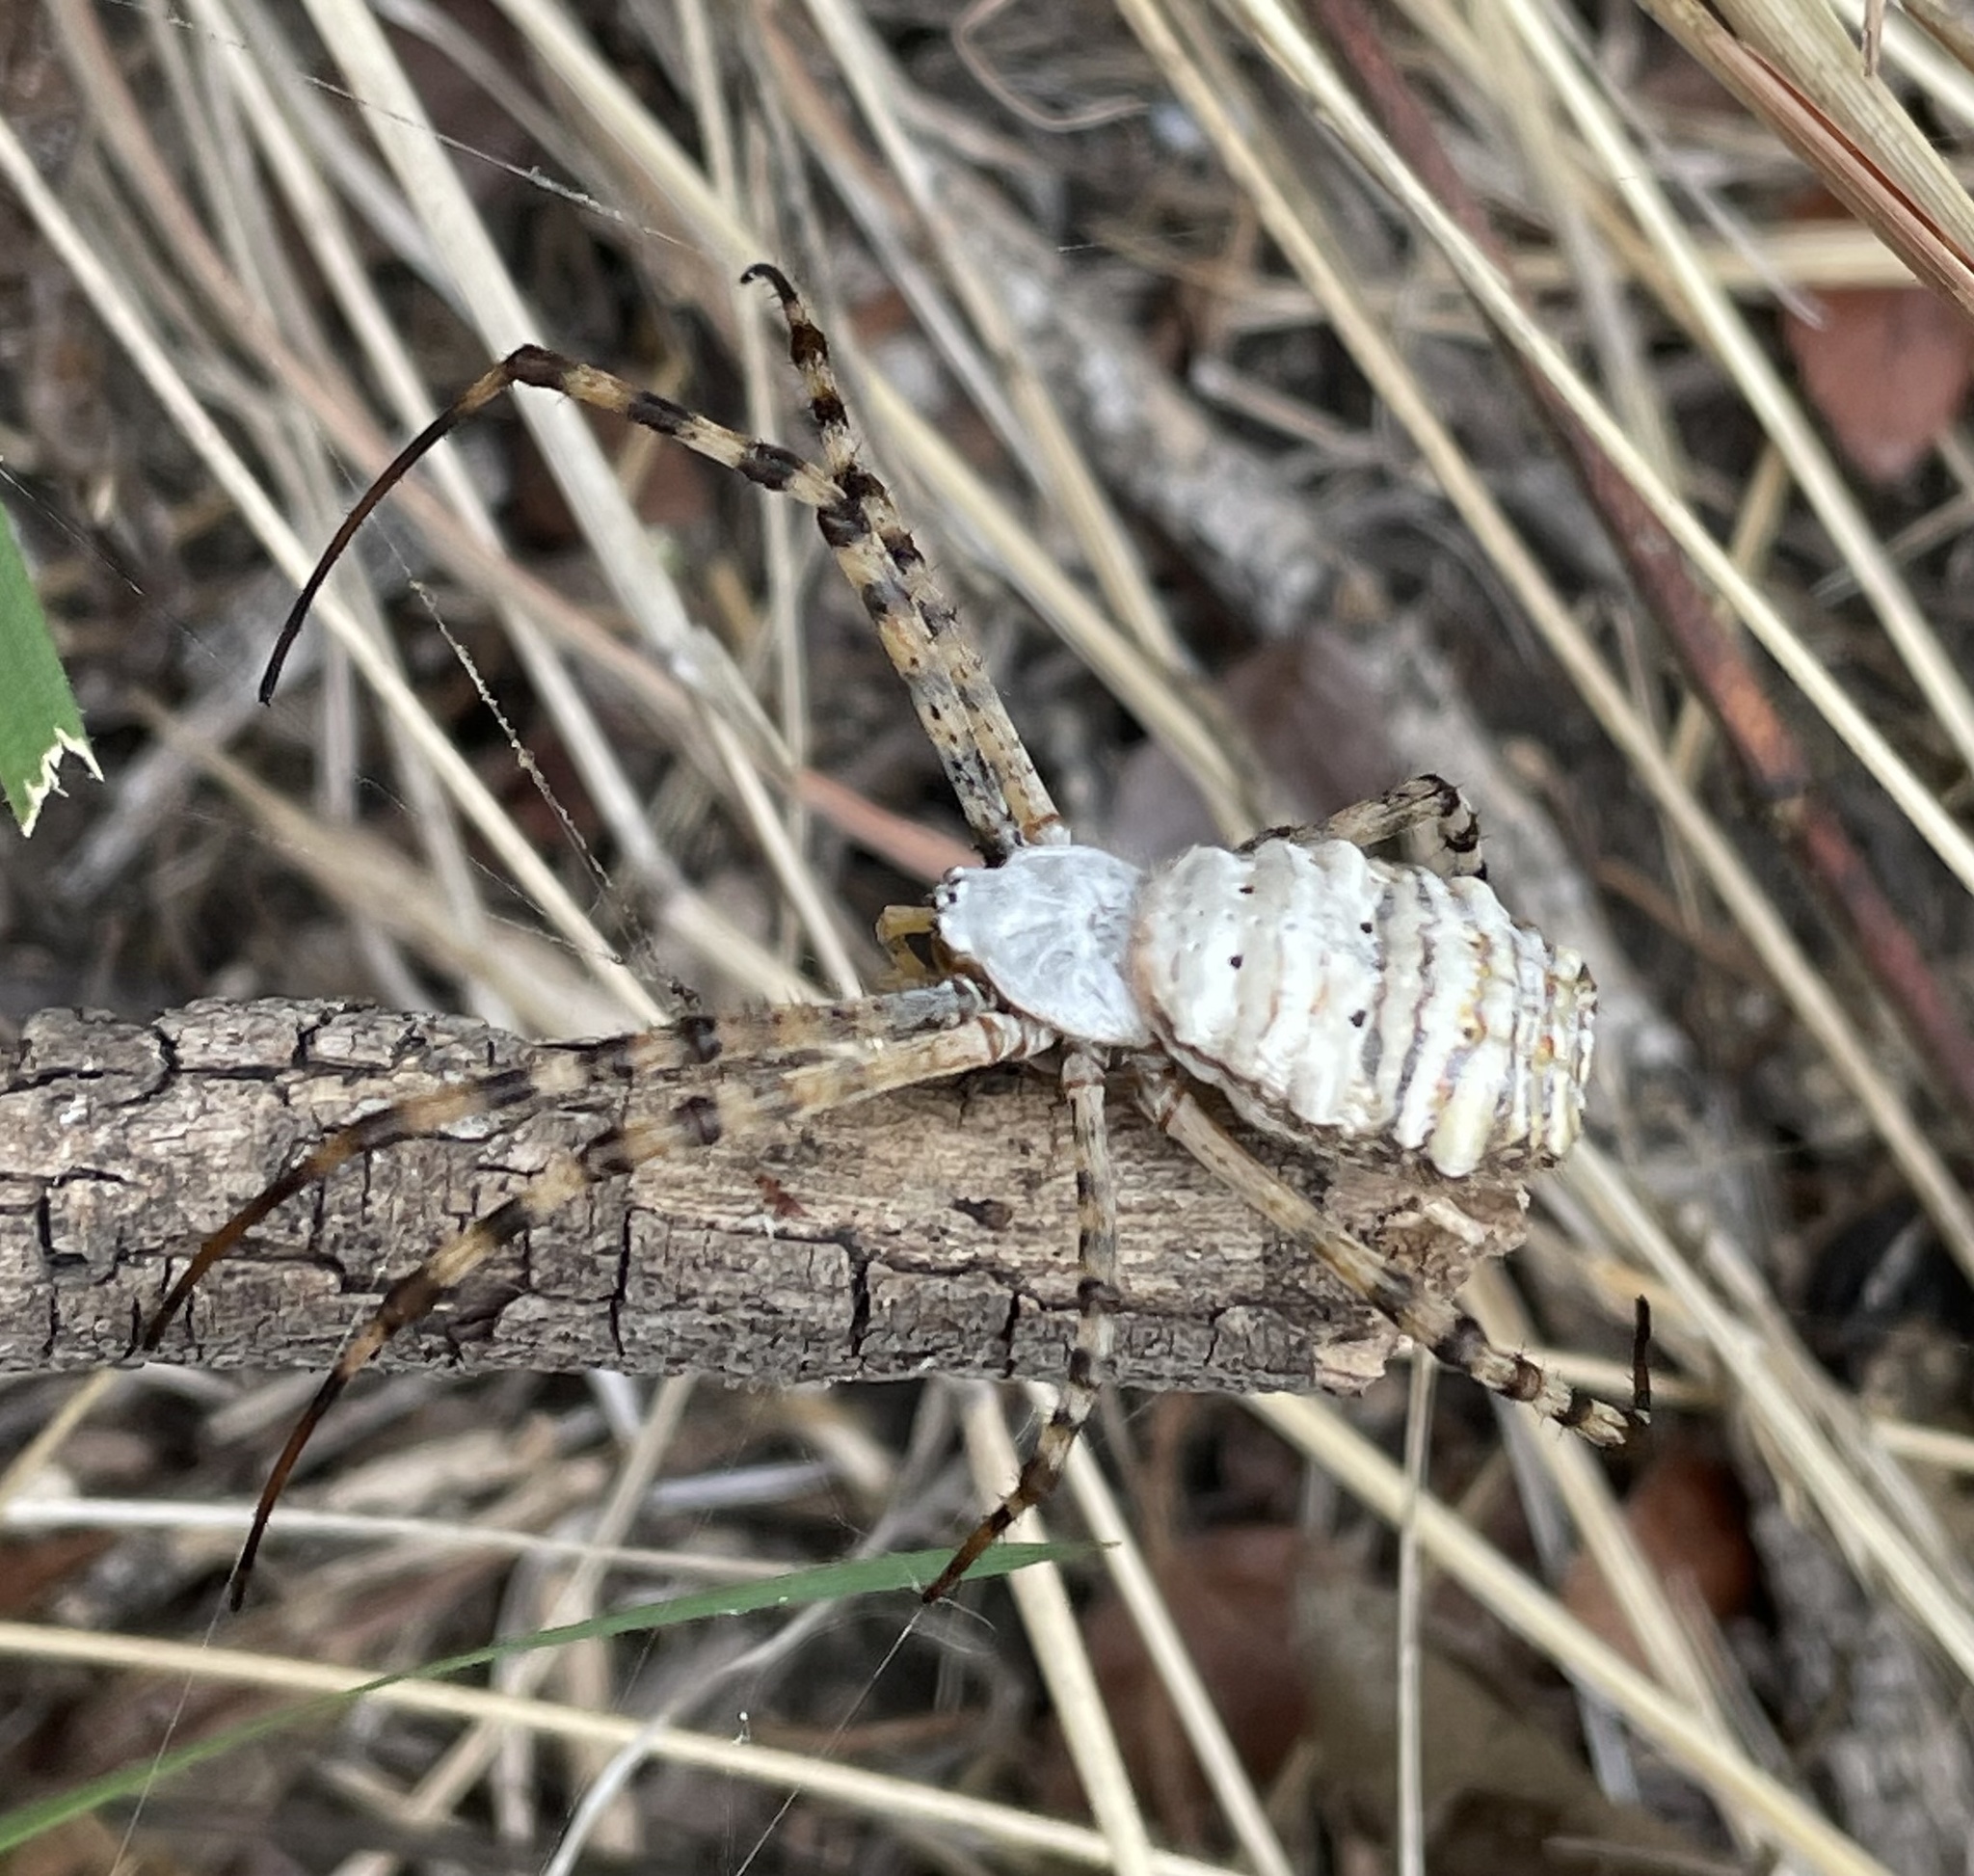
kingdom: Animalia
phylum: Arthropoda
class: Arachnida
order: Araneae
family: Araneidae
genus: Argiope
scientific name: Argiope trifasciata
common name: Banded garden spider
